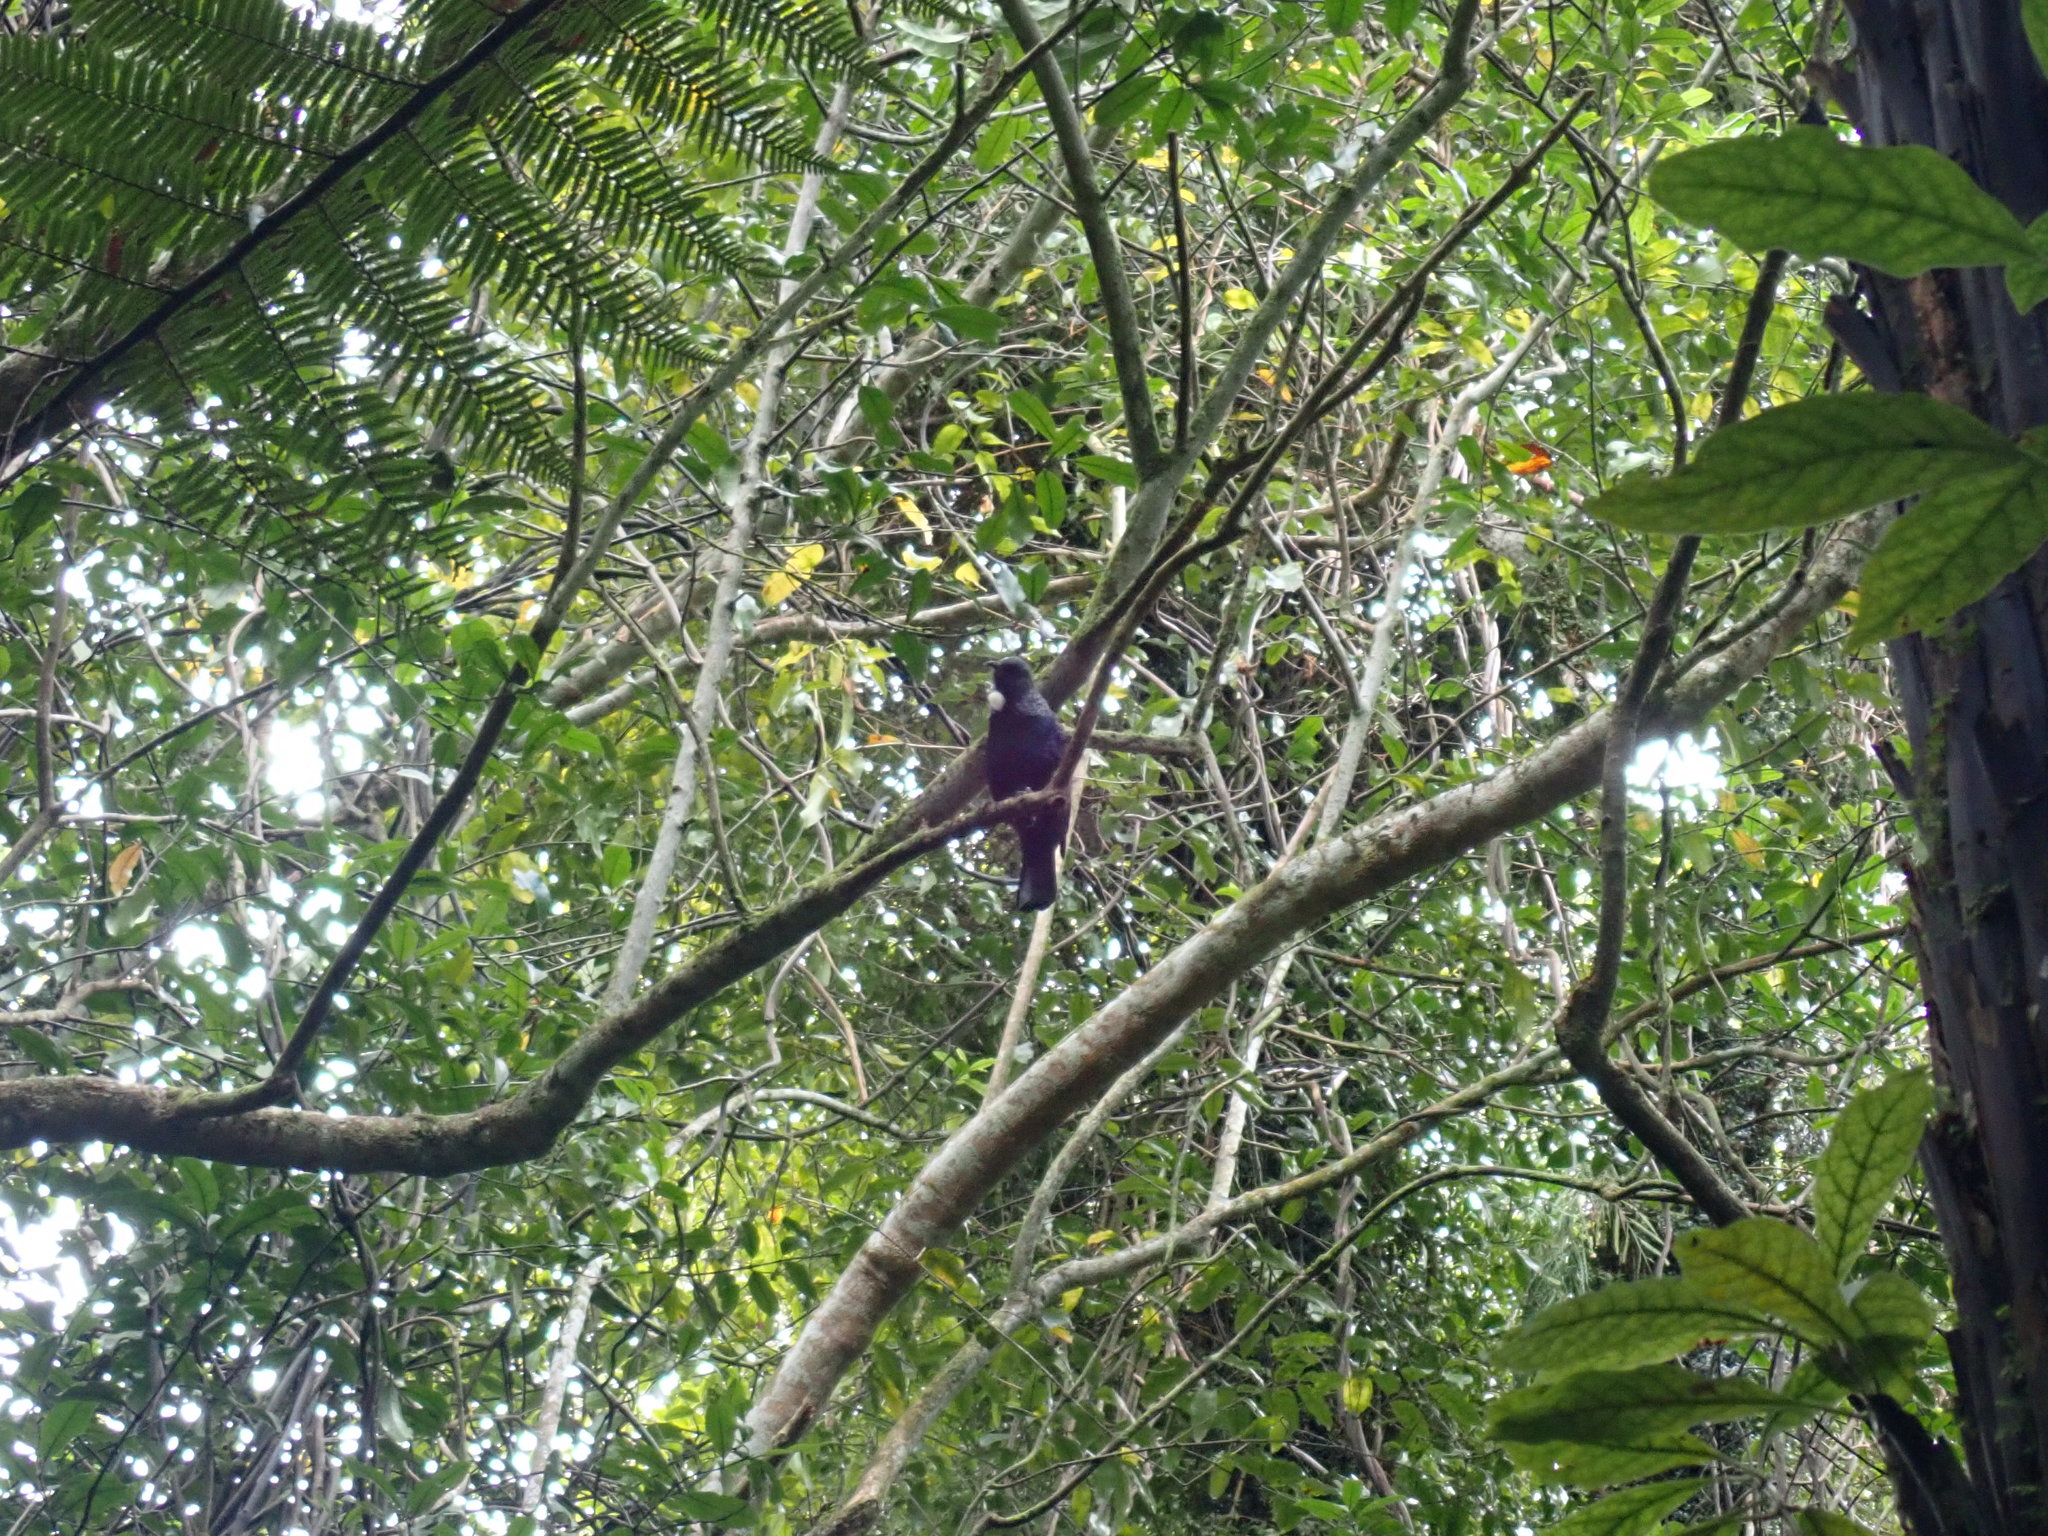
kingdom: Animalia
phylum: Chordata
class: Aves
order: Passeriformes
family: Meliphagidae
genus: Prosthemadera
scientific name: Prosthemadera novaeseelandiae
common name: Tui
